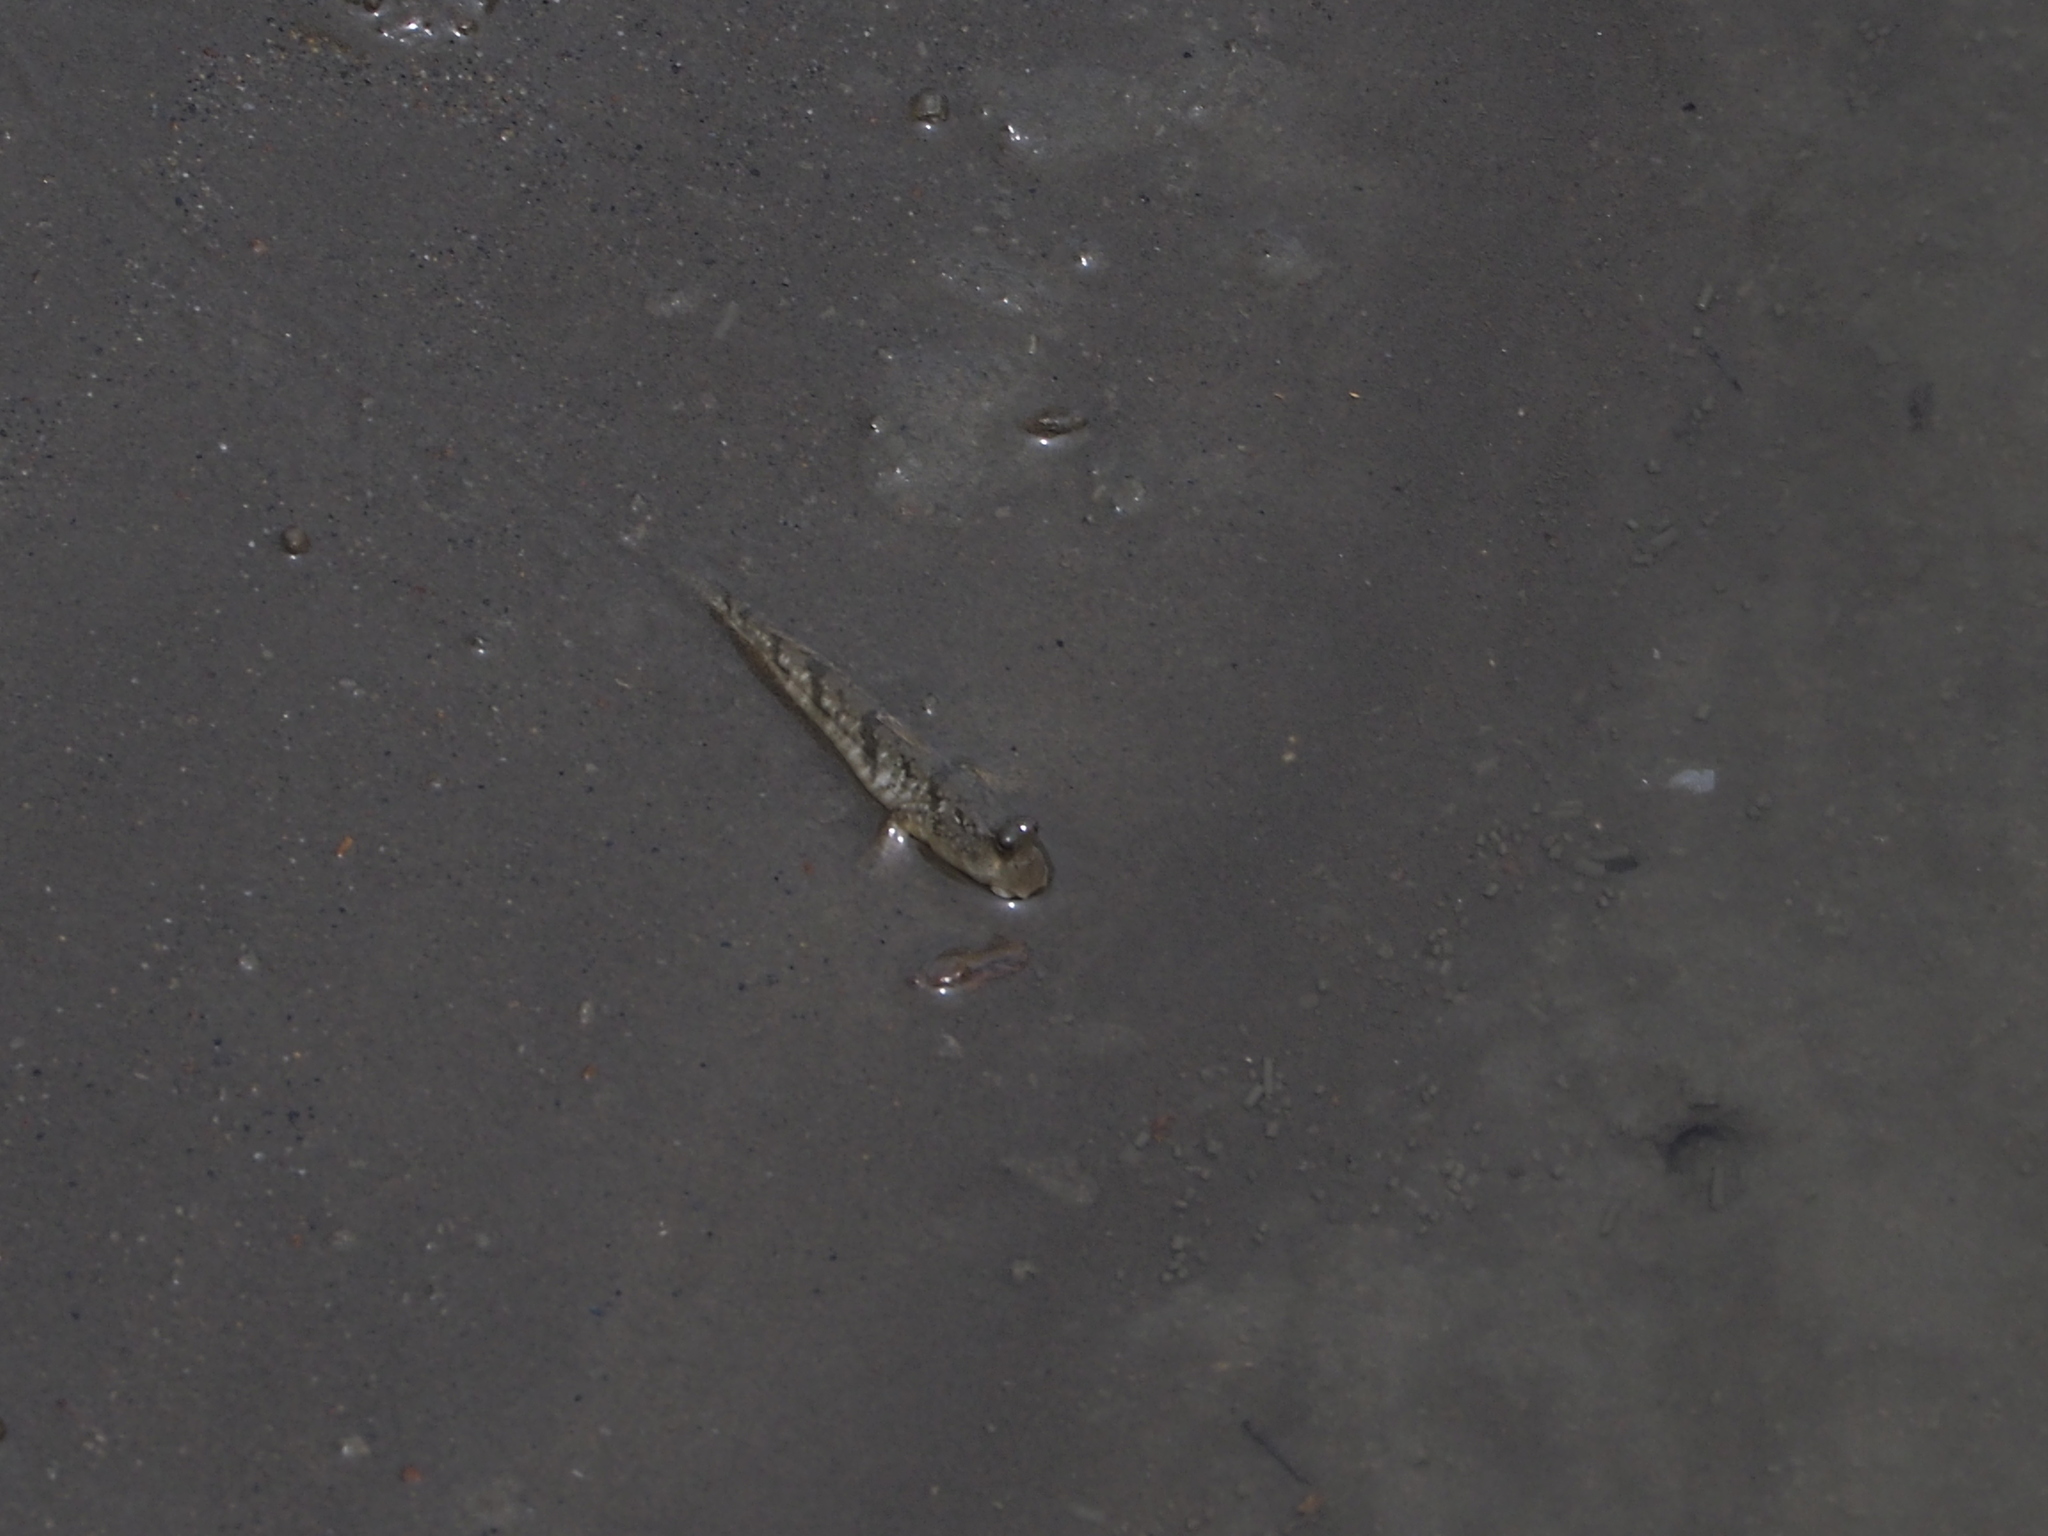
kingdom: Animalia
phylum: Chordata
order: Perciformes
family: Gobiidae
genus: Periophthalmus
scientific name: Periophthalmus modestus
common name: Black goby
